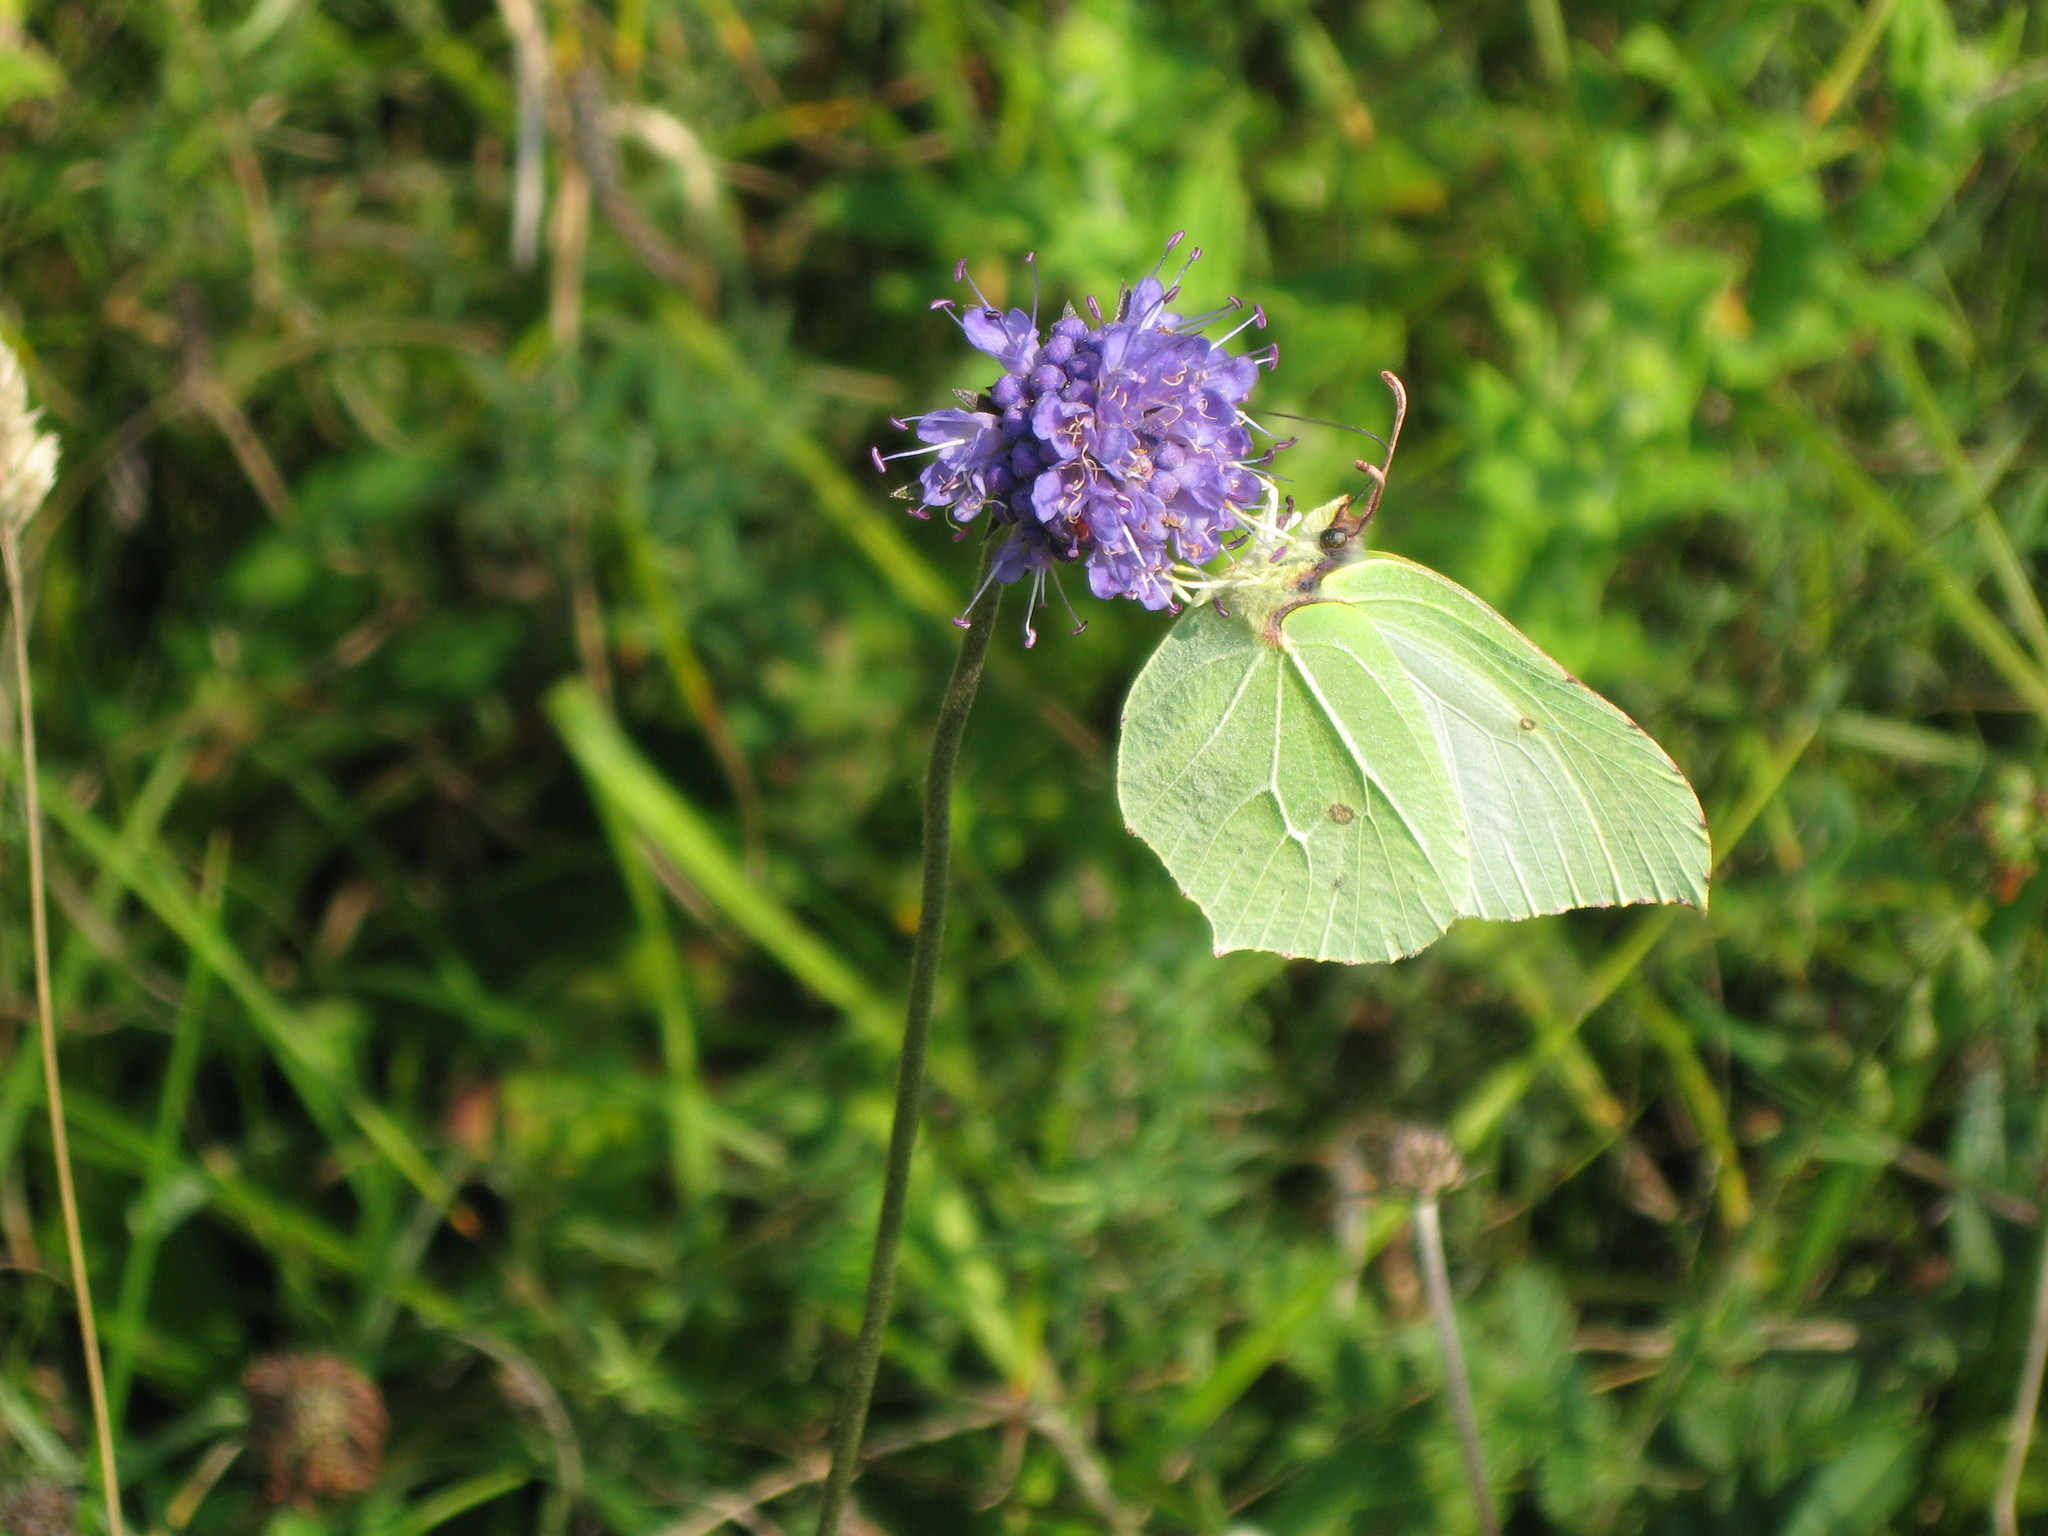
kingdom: Animalia
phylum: Arthropoda
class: Insecta
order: Lepidoptera
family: Pieridae
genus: Gonepteryx
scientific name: Gonepteryx rhamni
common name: Brimstone
